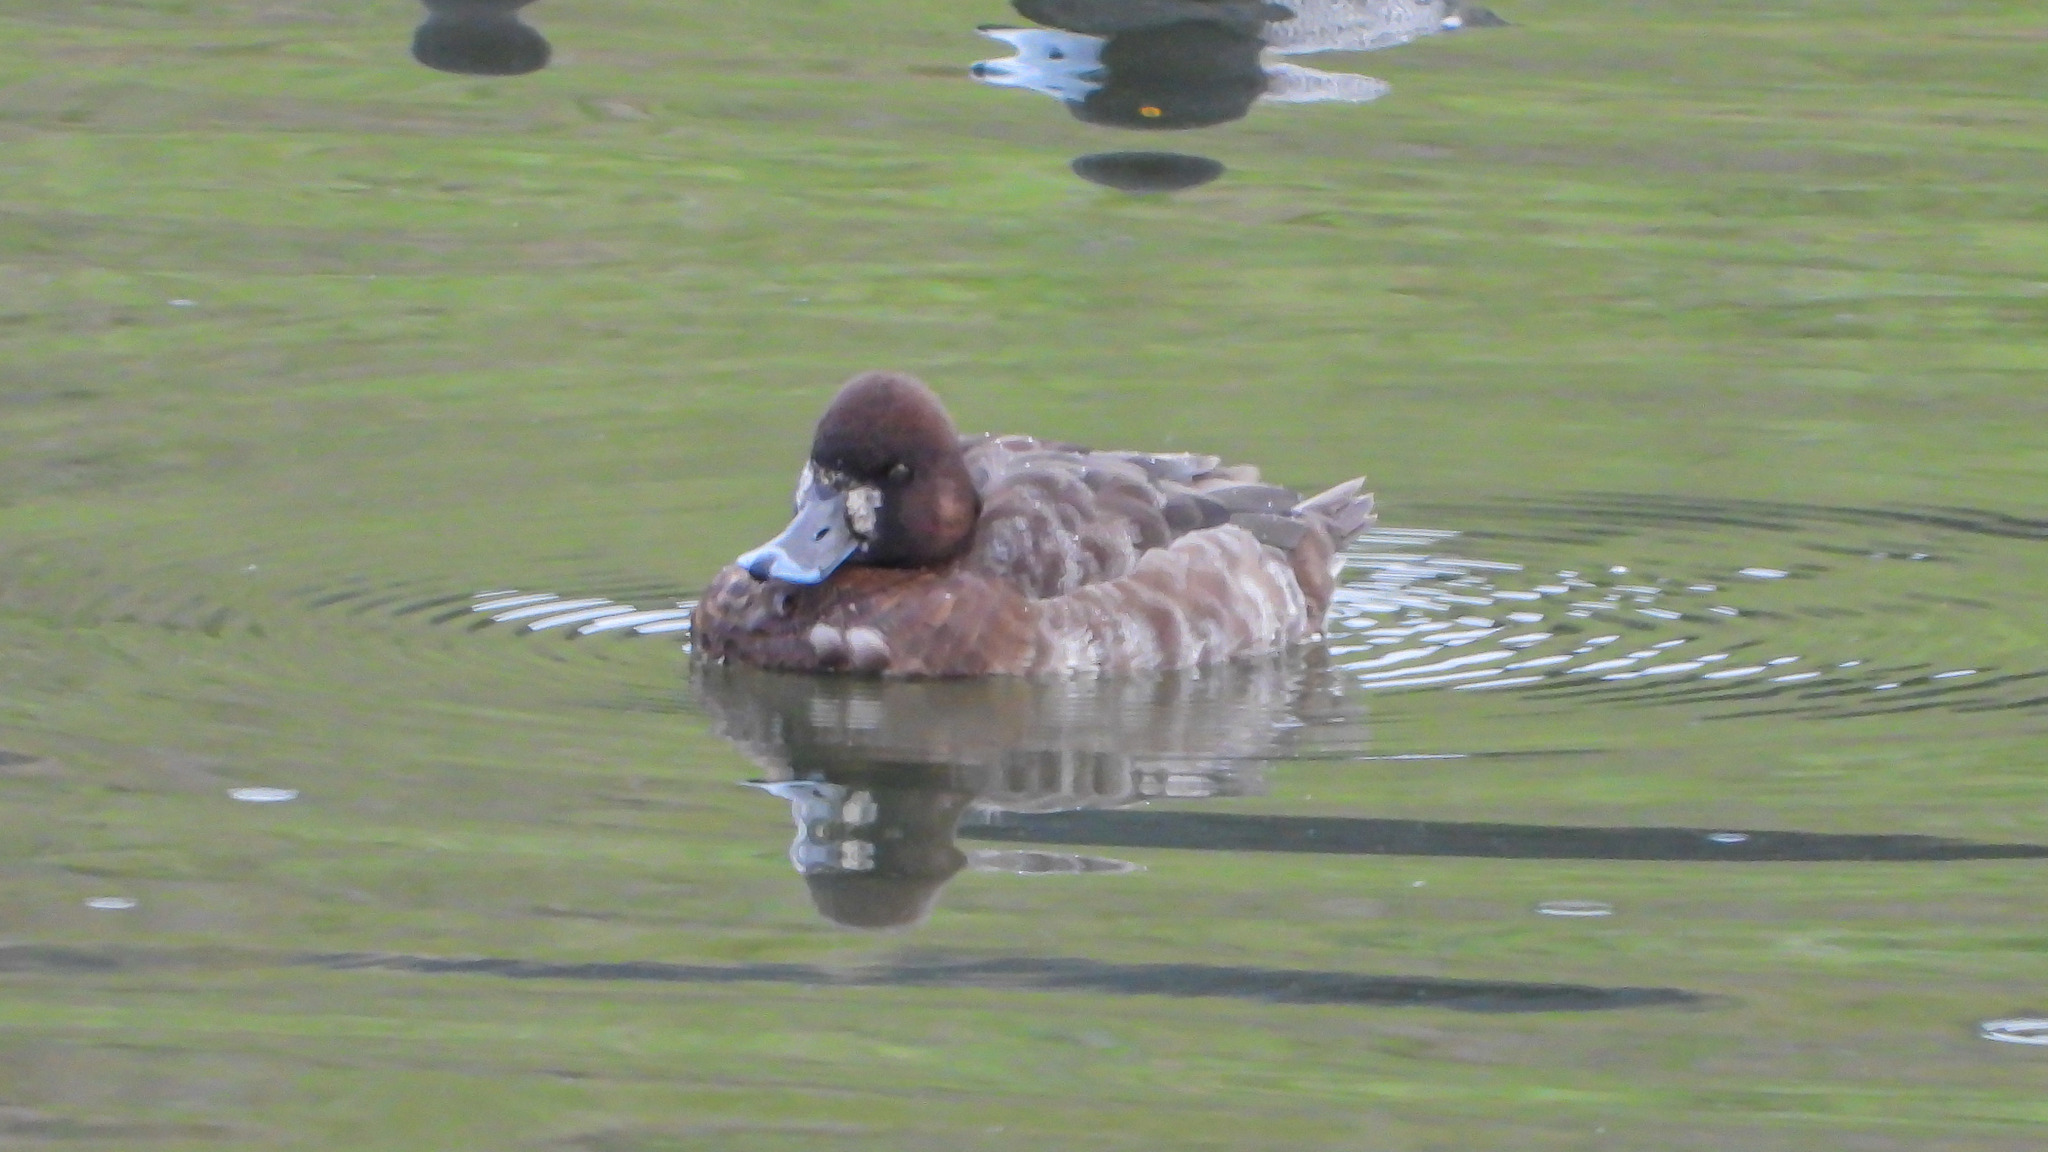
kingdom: Animalia
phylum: Chordata
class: Aves
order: Anseriformes
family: Anatidae
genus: Aythya
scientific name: Aythya affinis
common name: Lesser scaup
